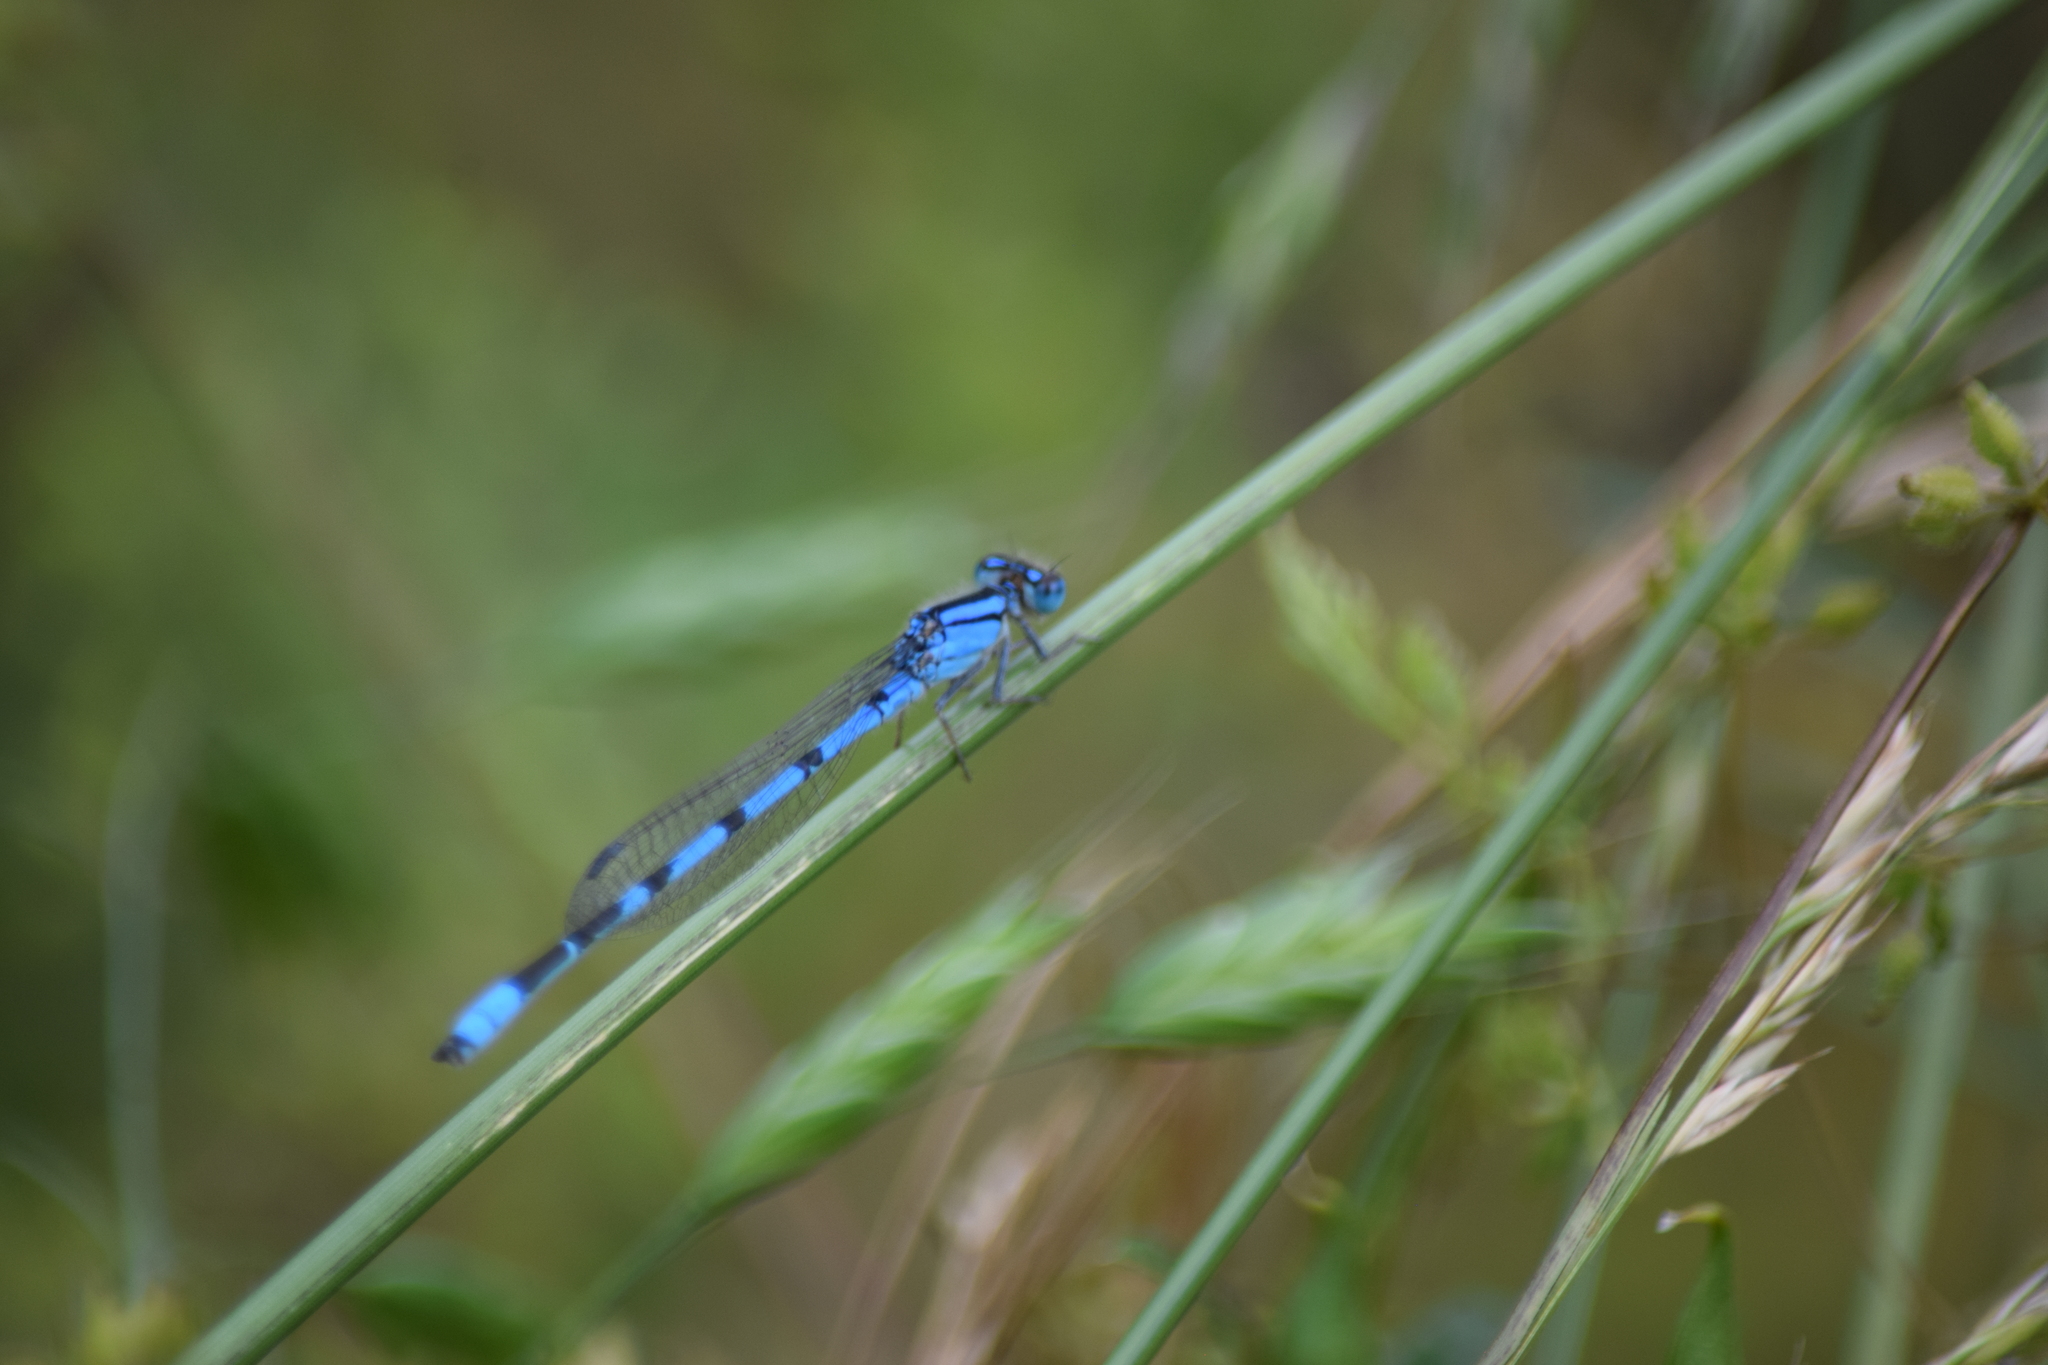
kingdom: Animalia
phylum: Arthropoda
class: Insecta
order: Odonata
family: Coenagrionidae
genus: Enallagma
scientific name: Enallagma civile
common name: Damselfly
